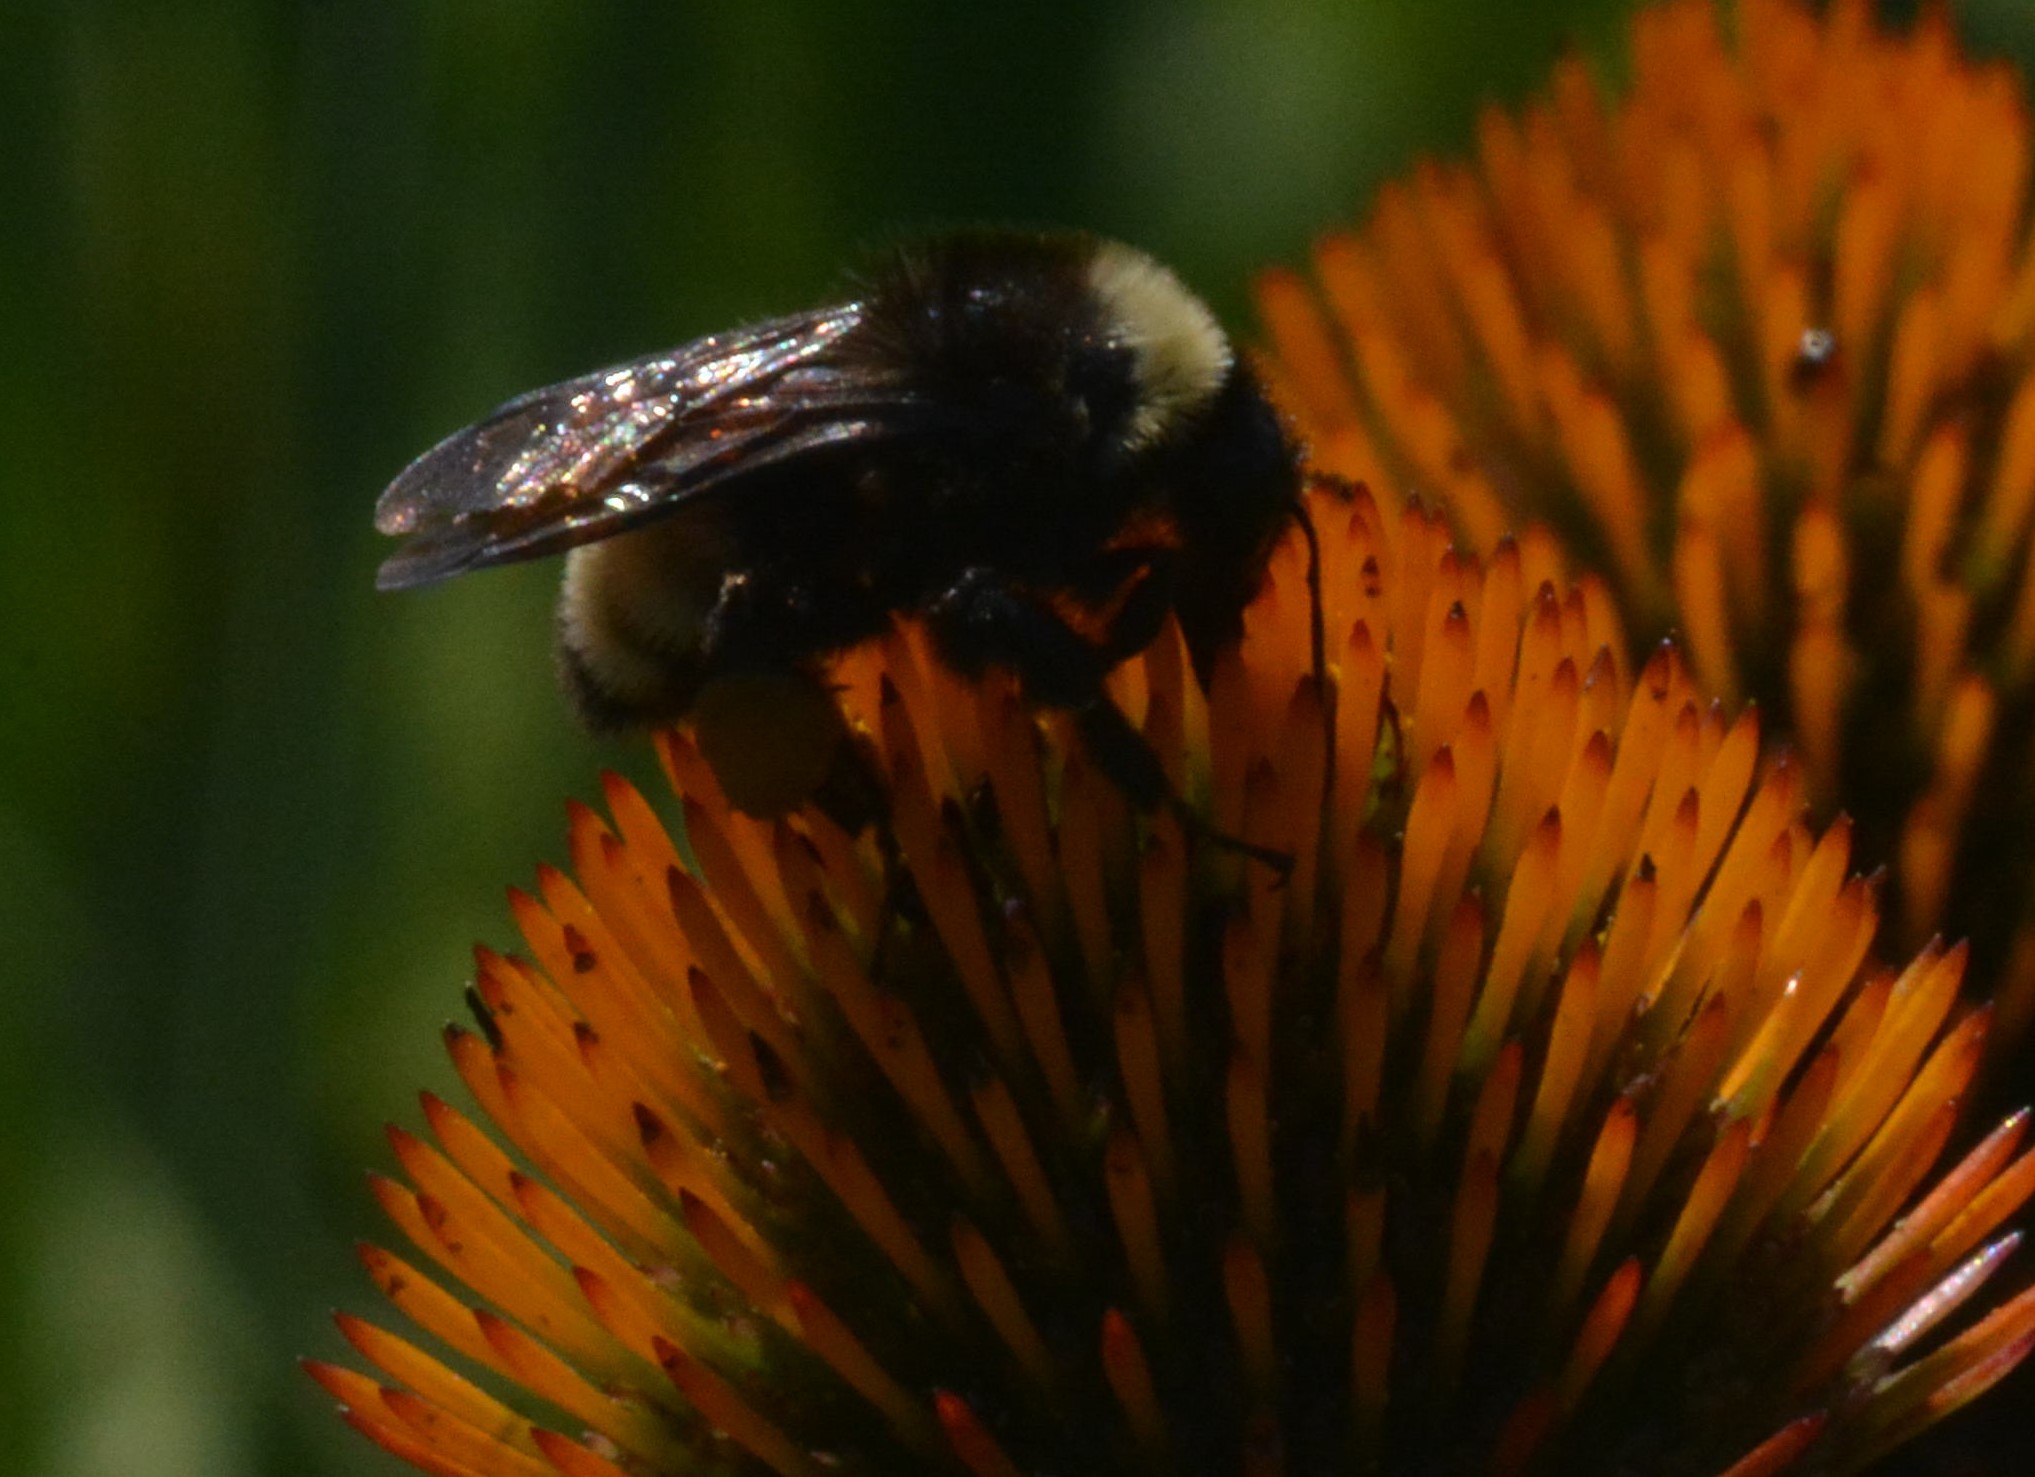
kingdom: Animalia
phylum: Arthropoda
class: Insecta
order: Hymenoptera
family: Apidae
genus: Bombus
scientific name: Bombus pensylvanicus
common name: Bumble bee
